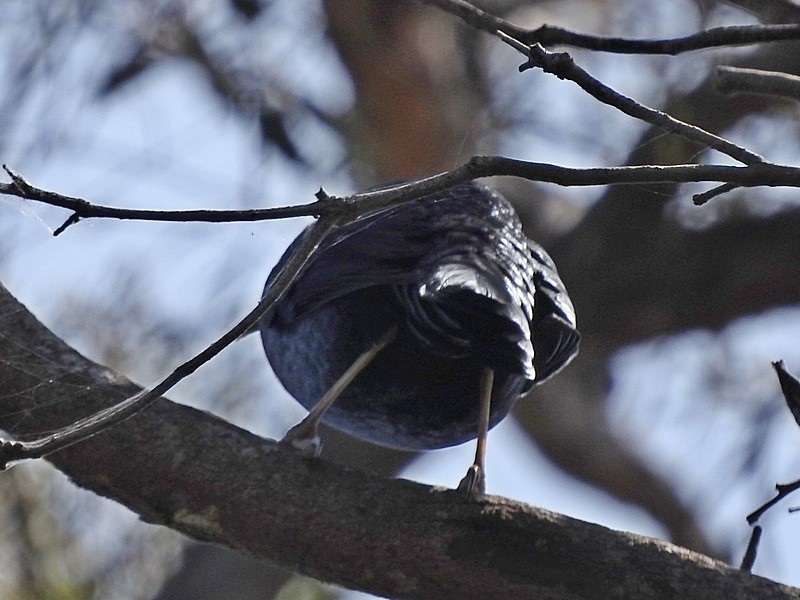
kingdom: Animalia
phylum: Chordata
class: Aves
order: Passeriformes
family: Ptilonorhynchidae
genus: Ptilonorhynchus
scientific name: Ptilonorhynchus violaceus
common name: Satin bowerbird
